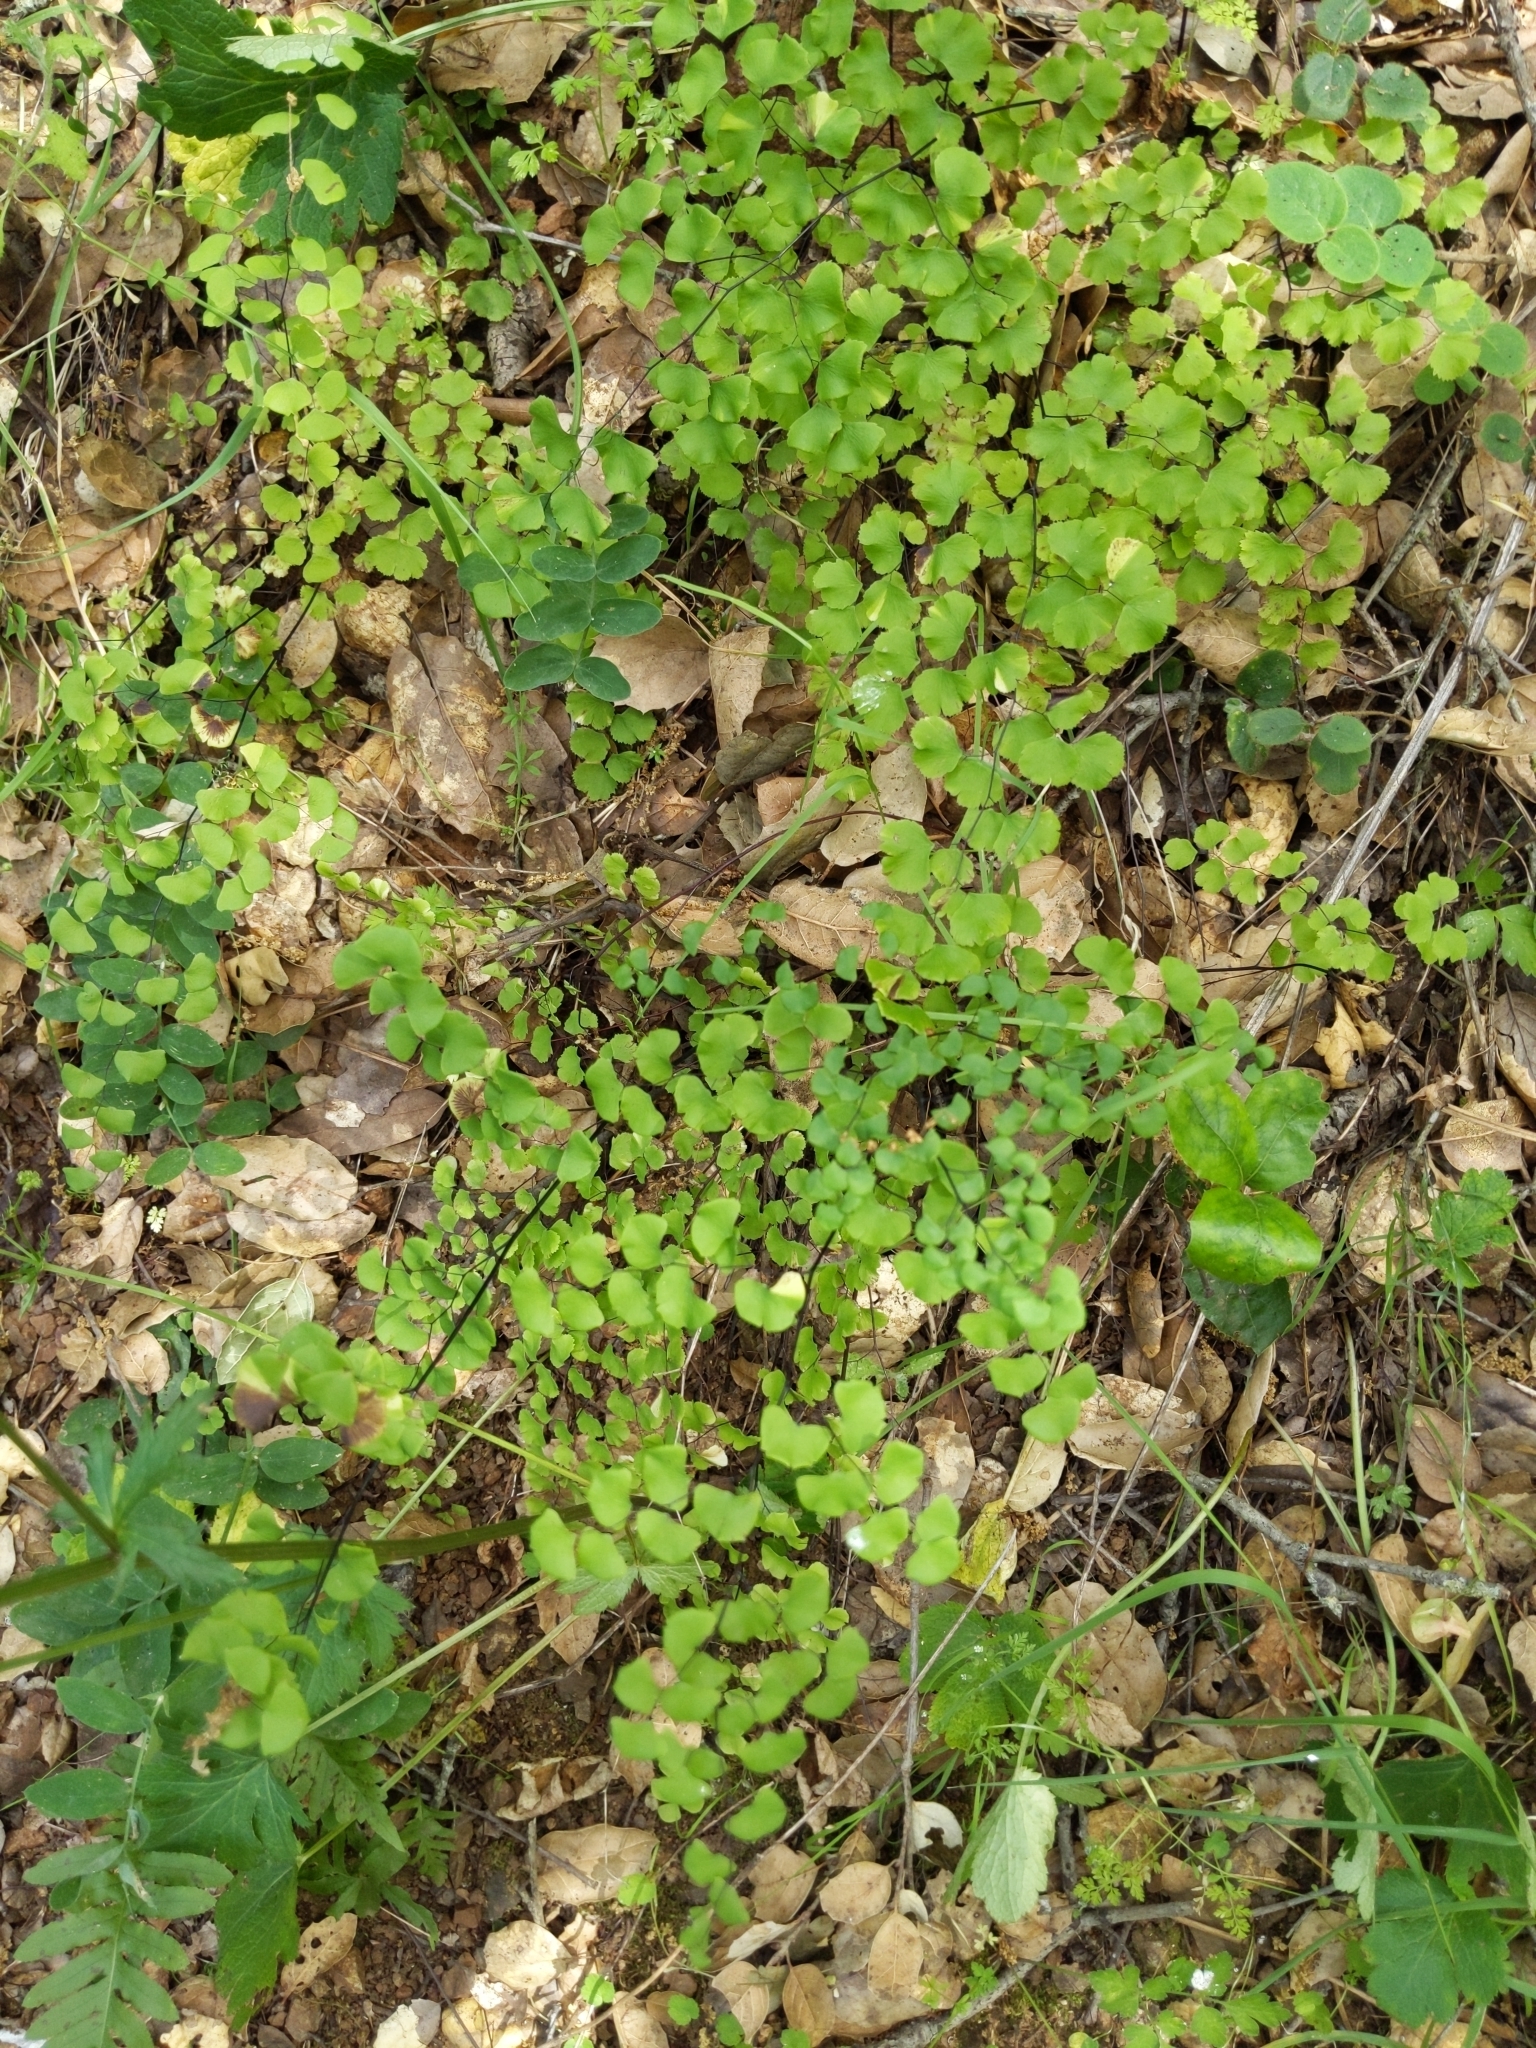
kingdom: Plantae
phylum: Tracheophyta
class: Polypodiopsida
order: Polypodiales
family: Pteridaceae
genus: Adiantum
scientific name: Adiantum jordanii
